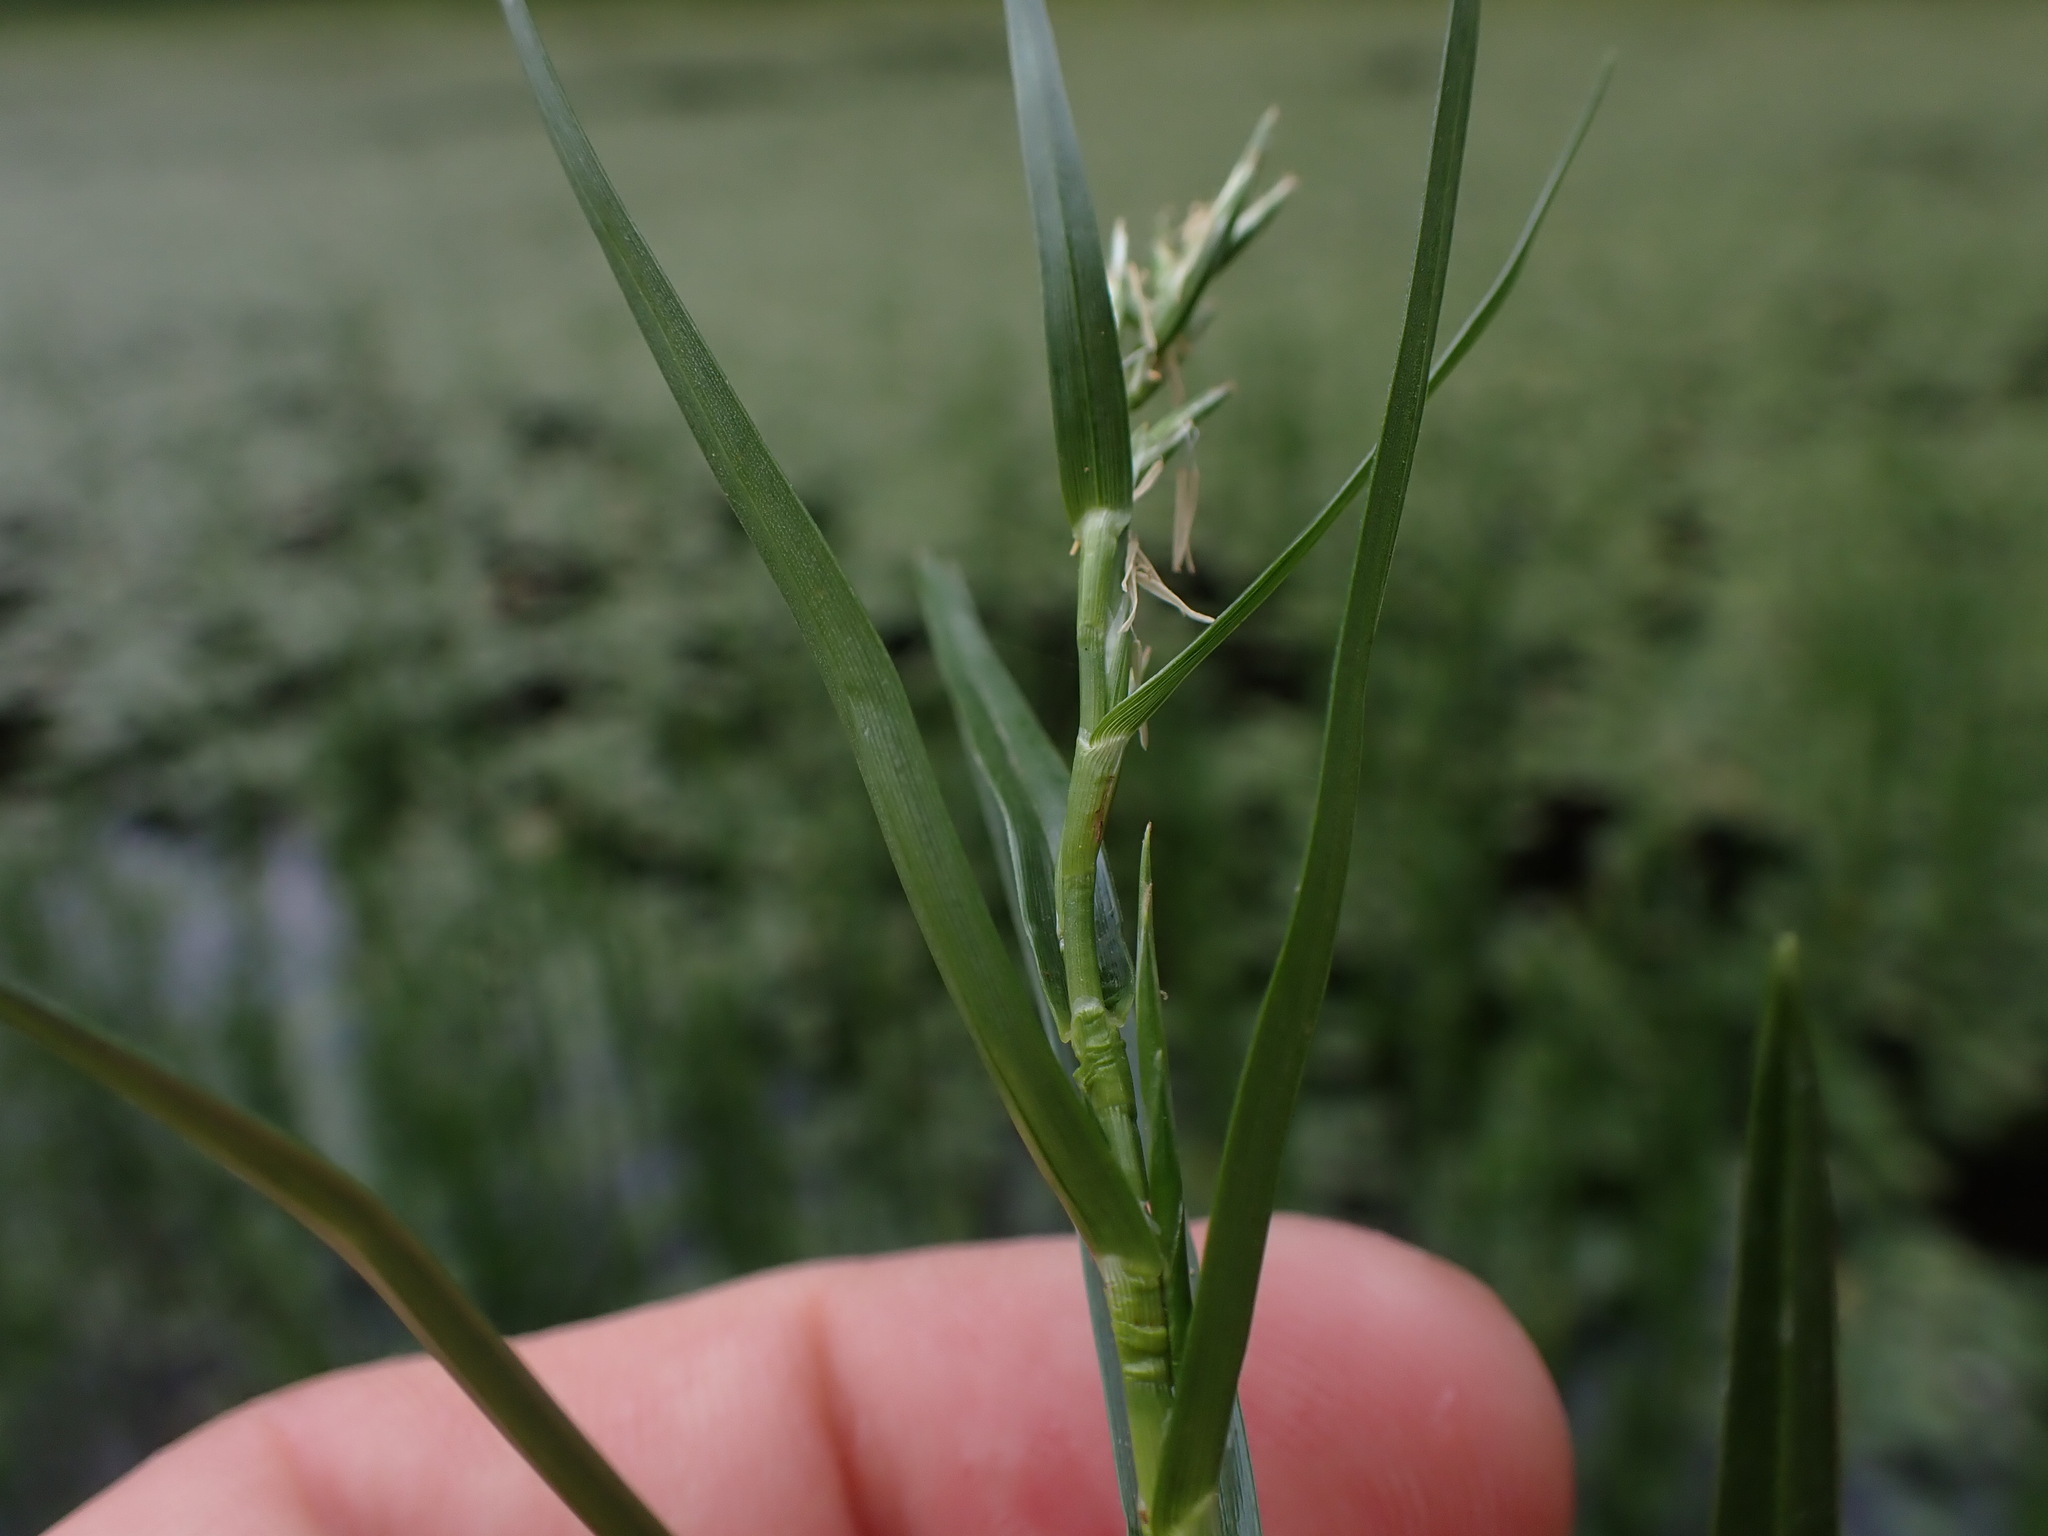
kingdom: Plantae
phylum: Tracheophyta
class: Liliopsida
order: Poales
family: Cyperaceae
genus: Dulichium
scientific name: Dulichium arundinaceum
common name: Three-way sedge
